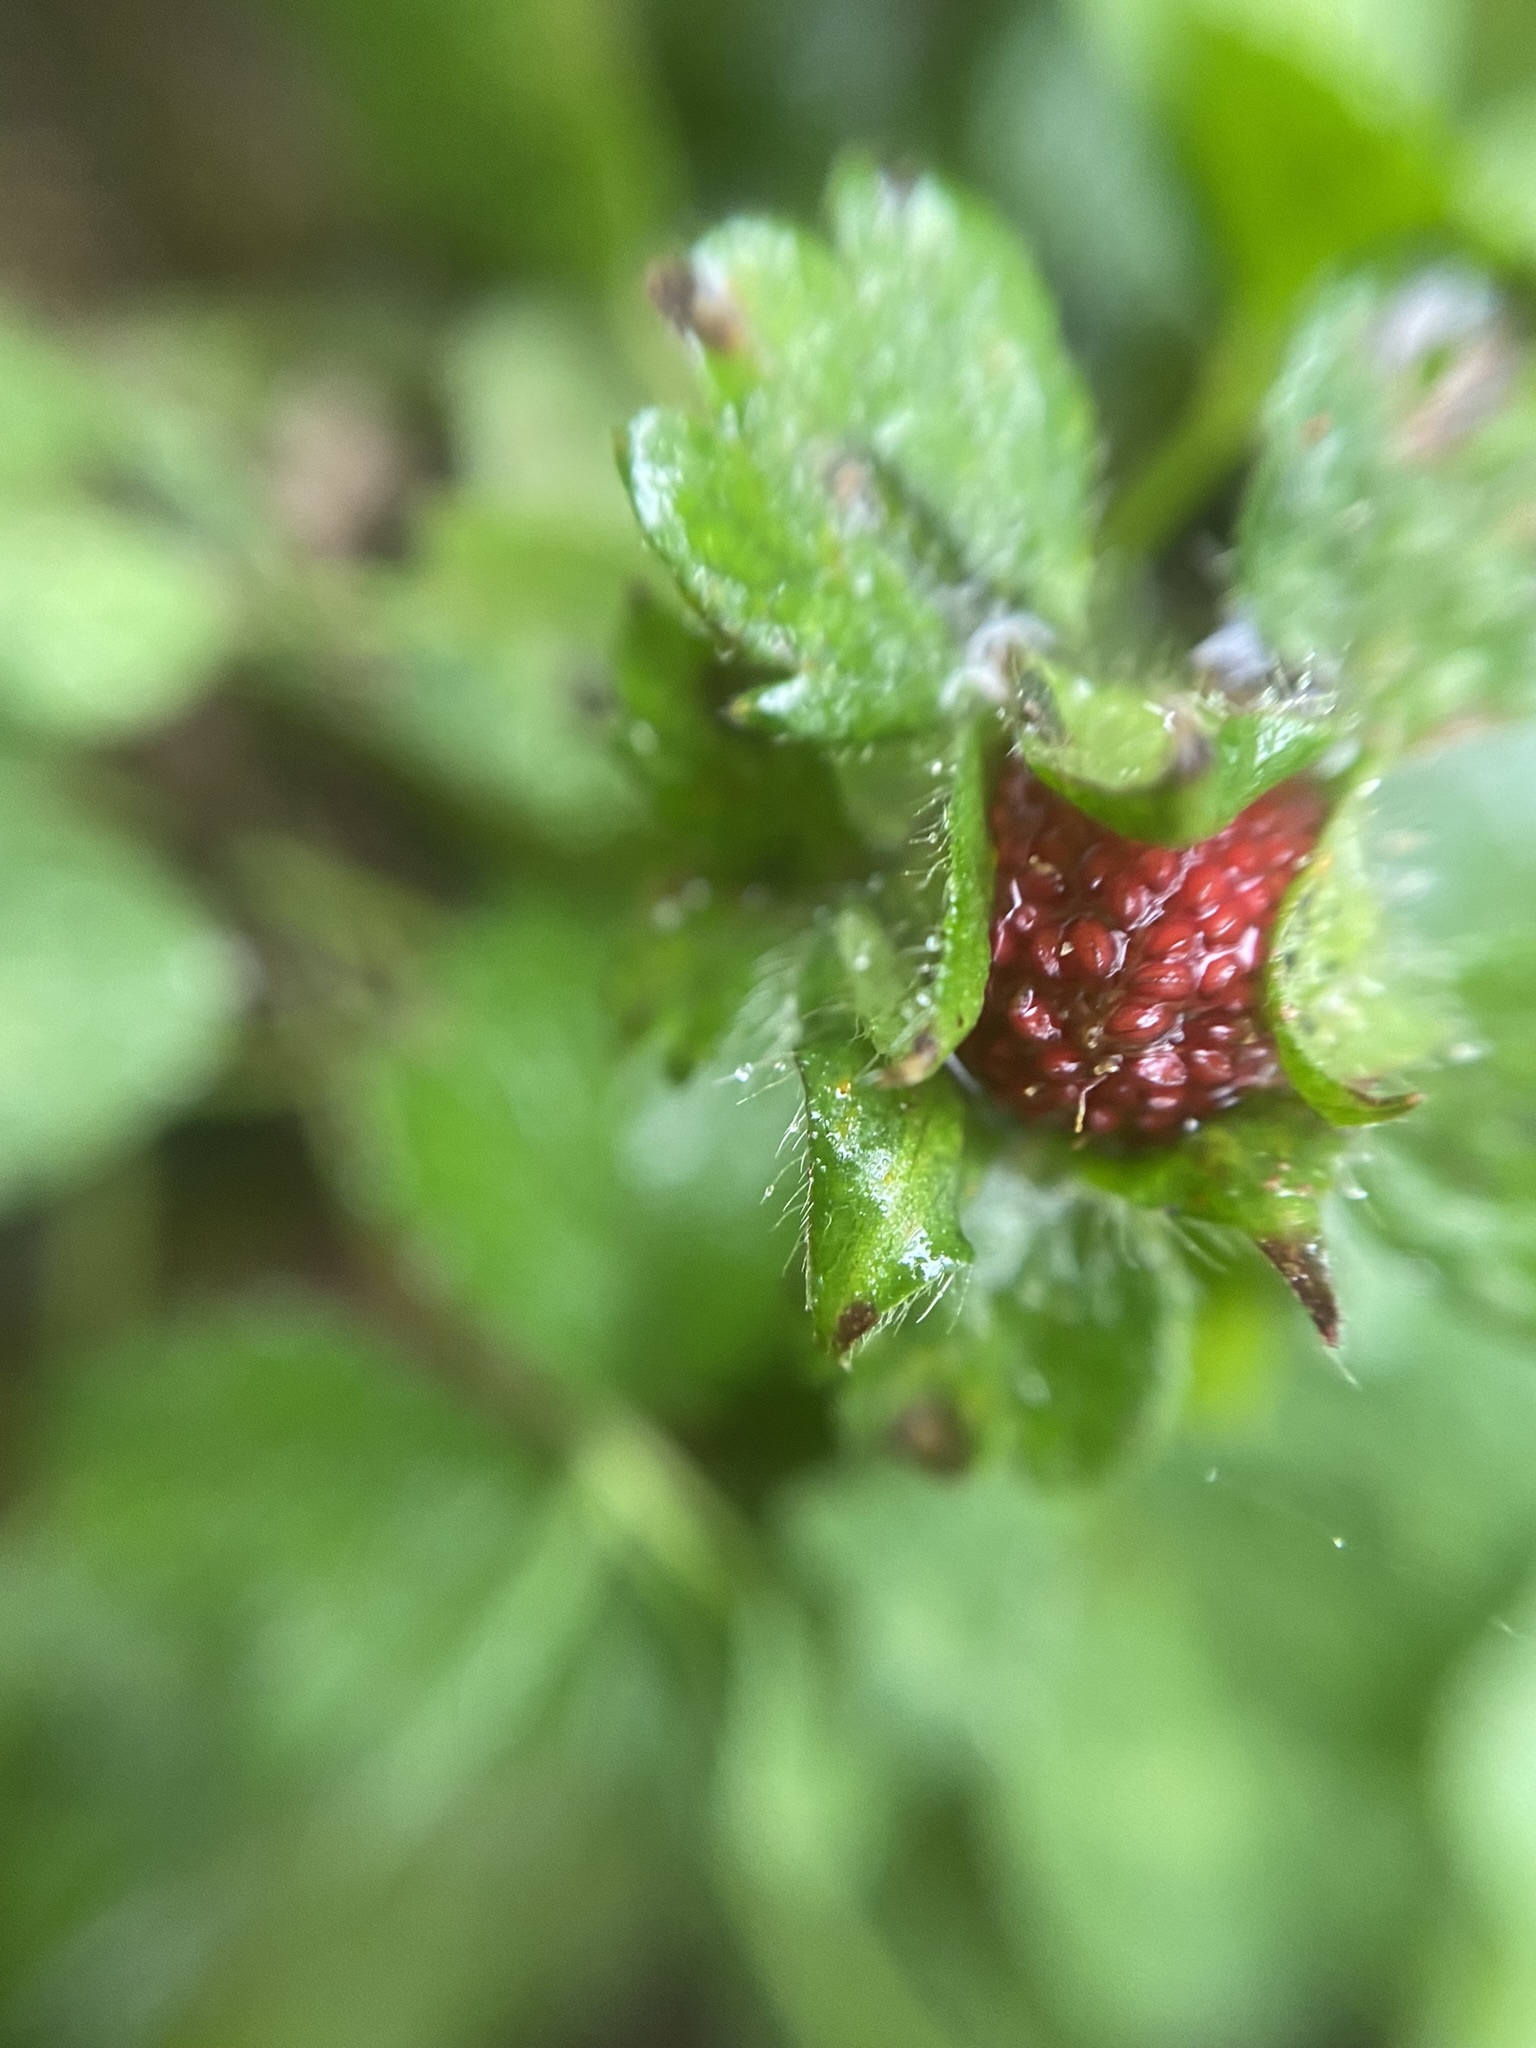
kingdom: Plantae
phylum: Tracheophyta
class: Magnoliopsida
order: Rosales
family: Rosaceae
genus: Potentilla
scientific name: Potentilla indica
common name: Yellow-flowered strawberry
